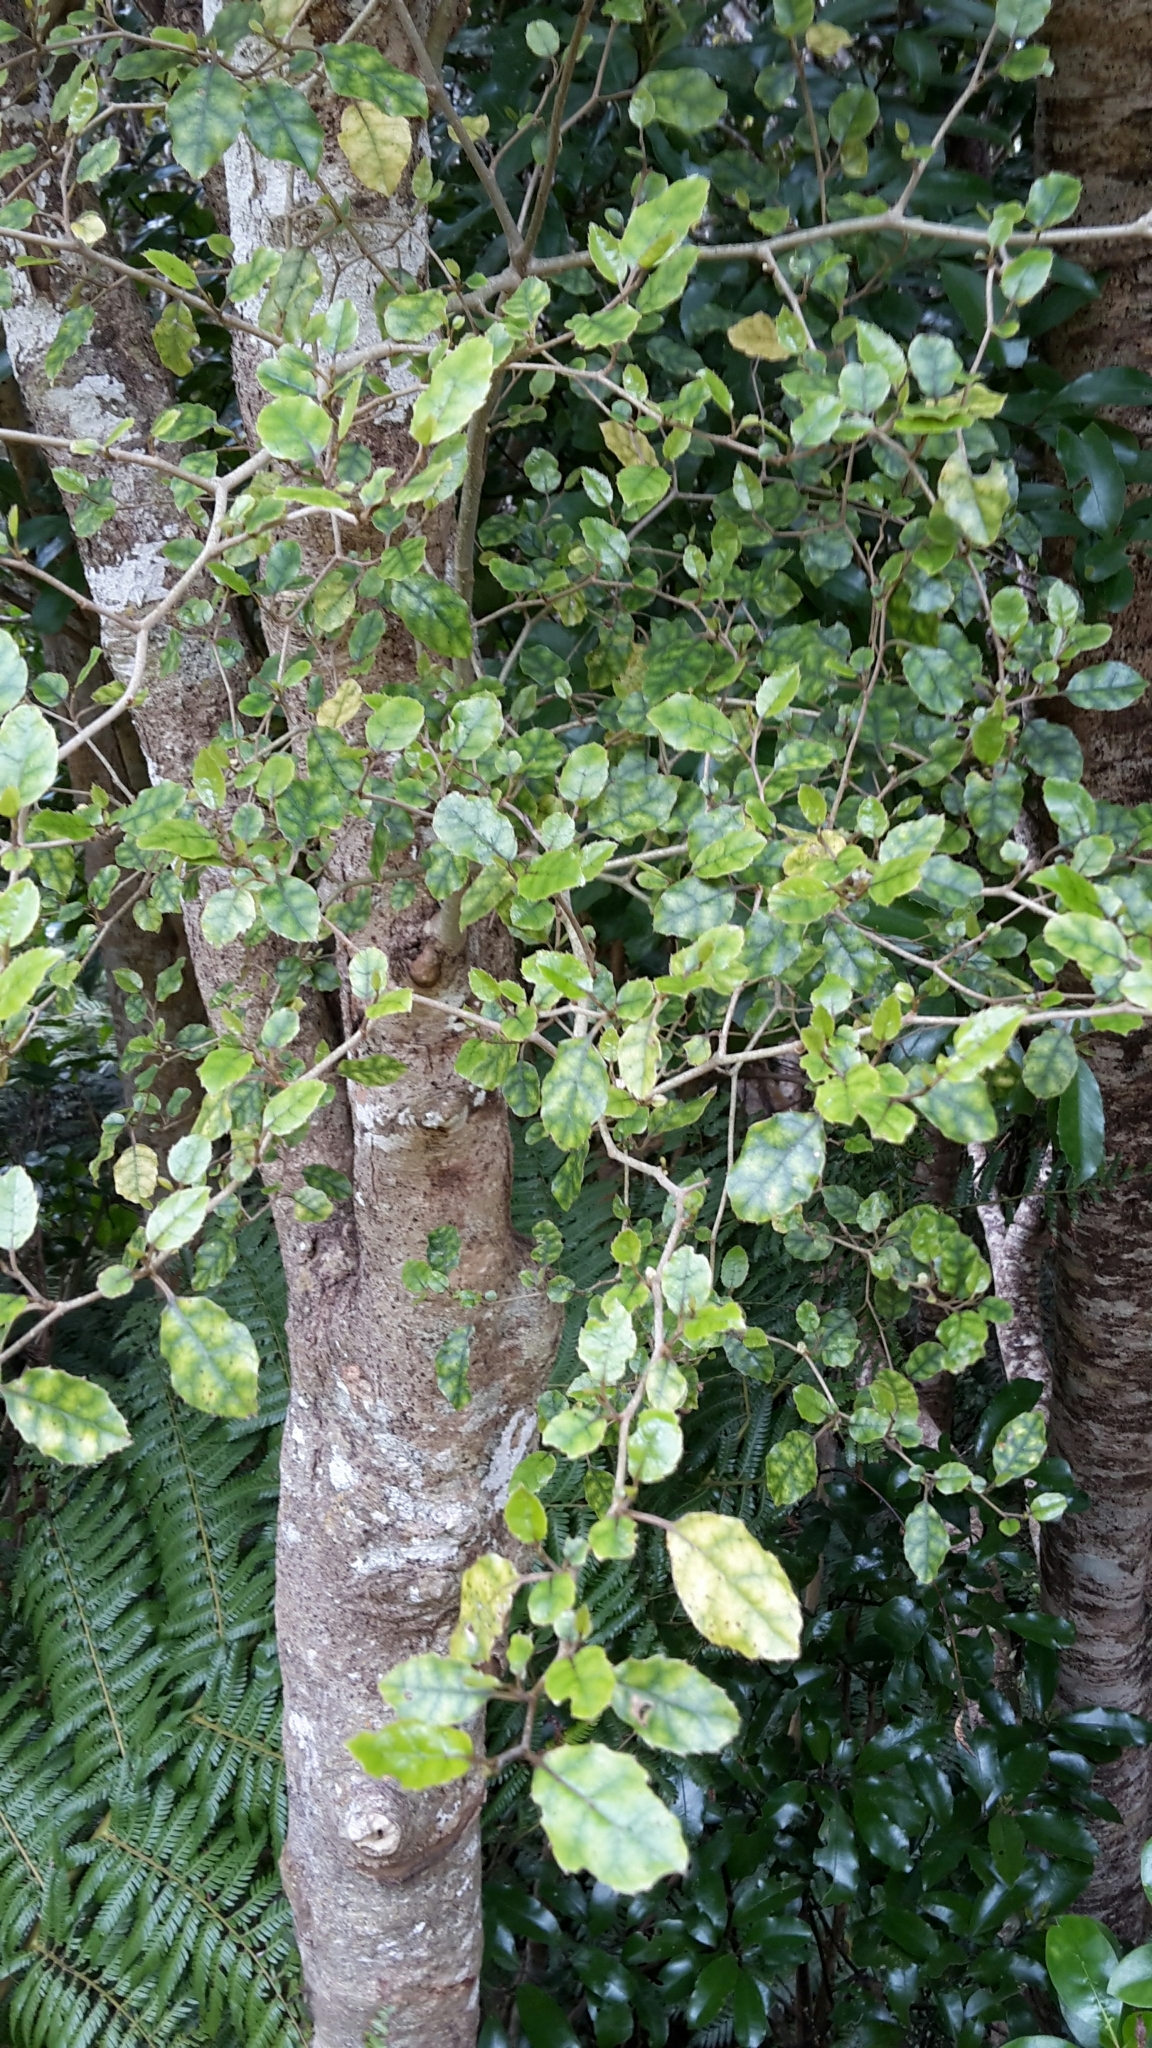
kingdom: Plantae
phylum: Tracheophyta
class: Magnoliopsida
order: Asterales
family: Rousseaceae
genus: Carpodetus
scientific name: Carpodetus serratus
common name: White mapau
